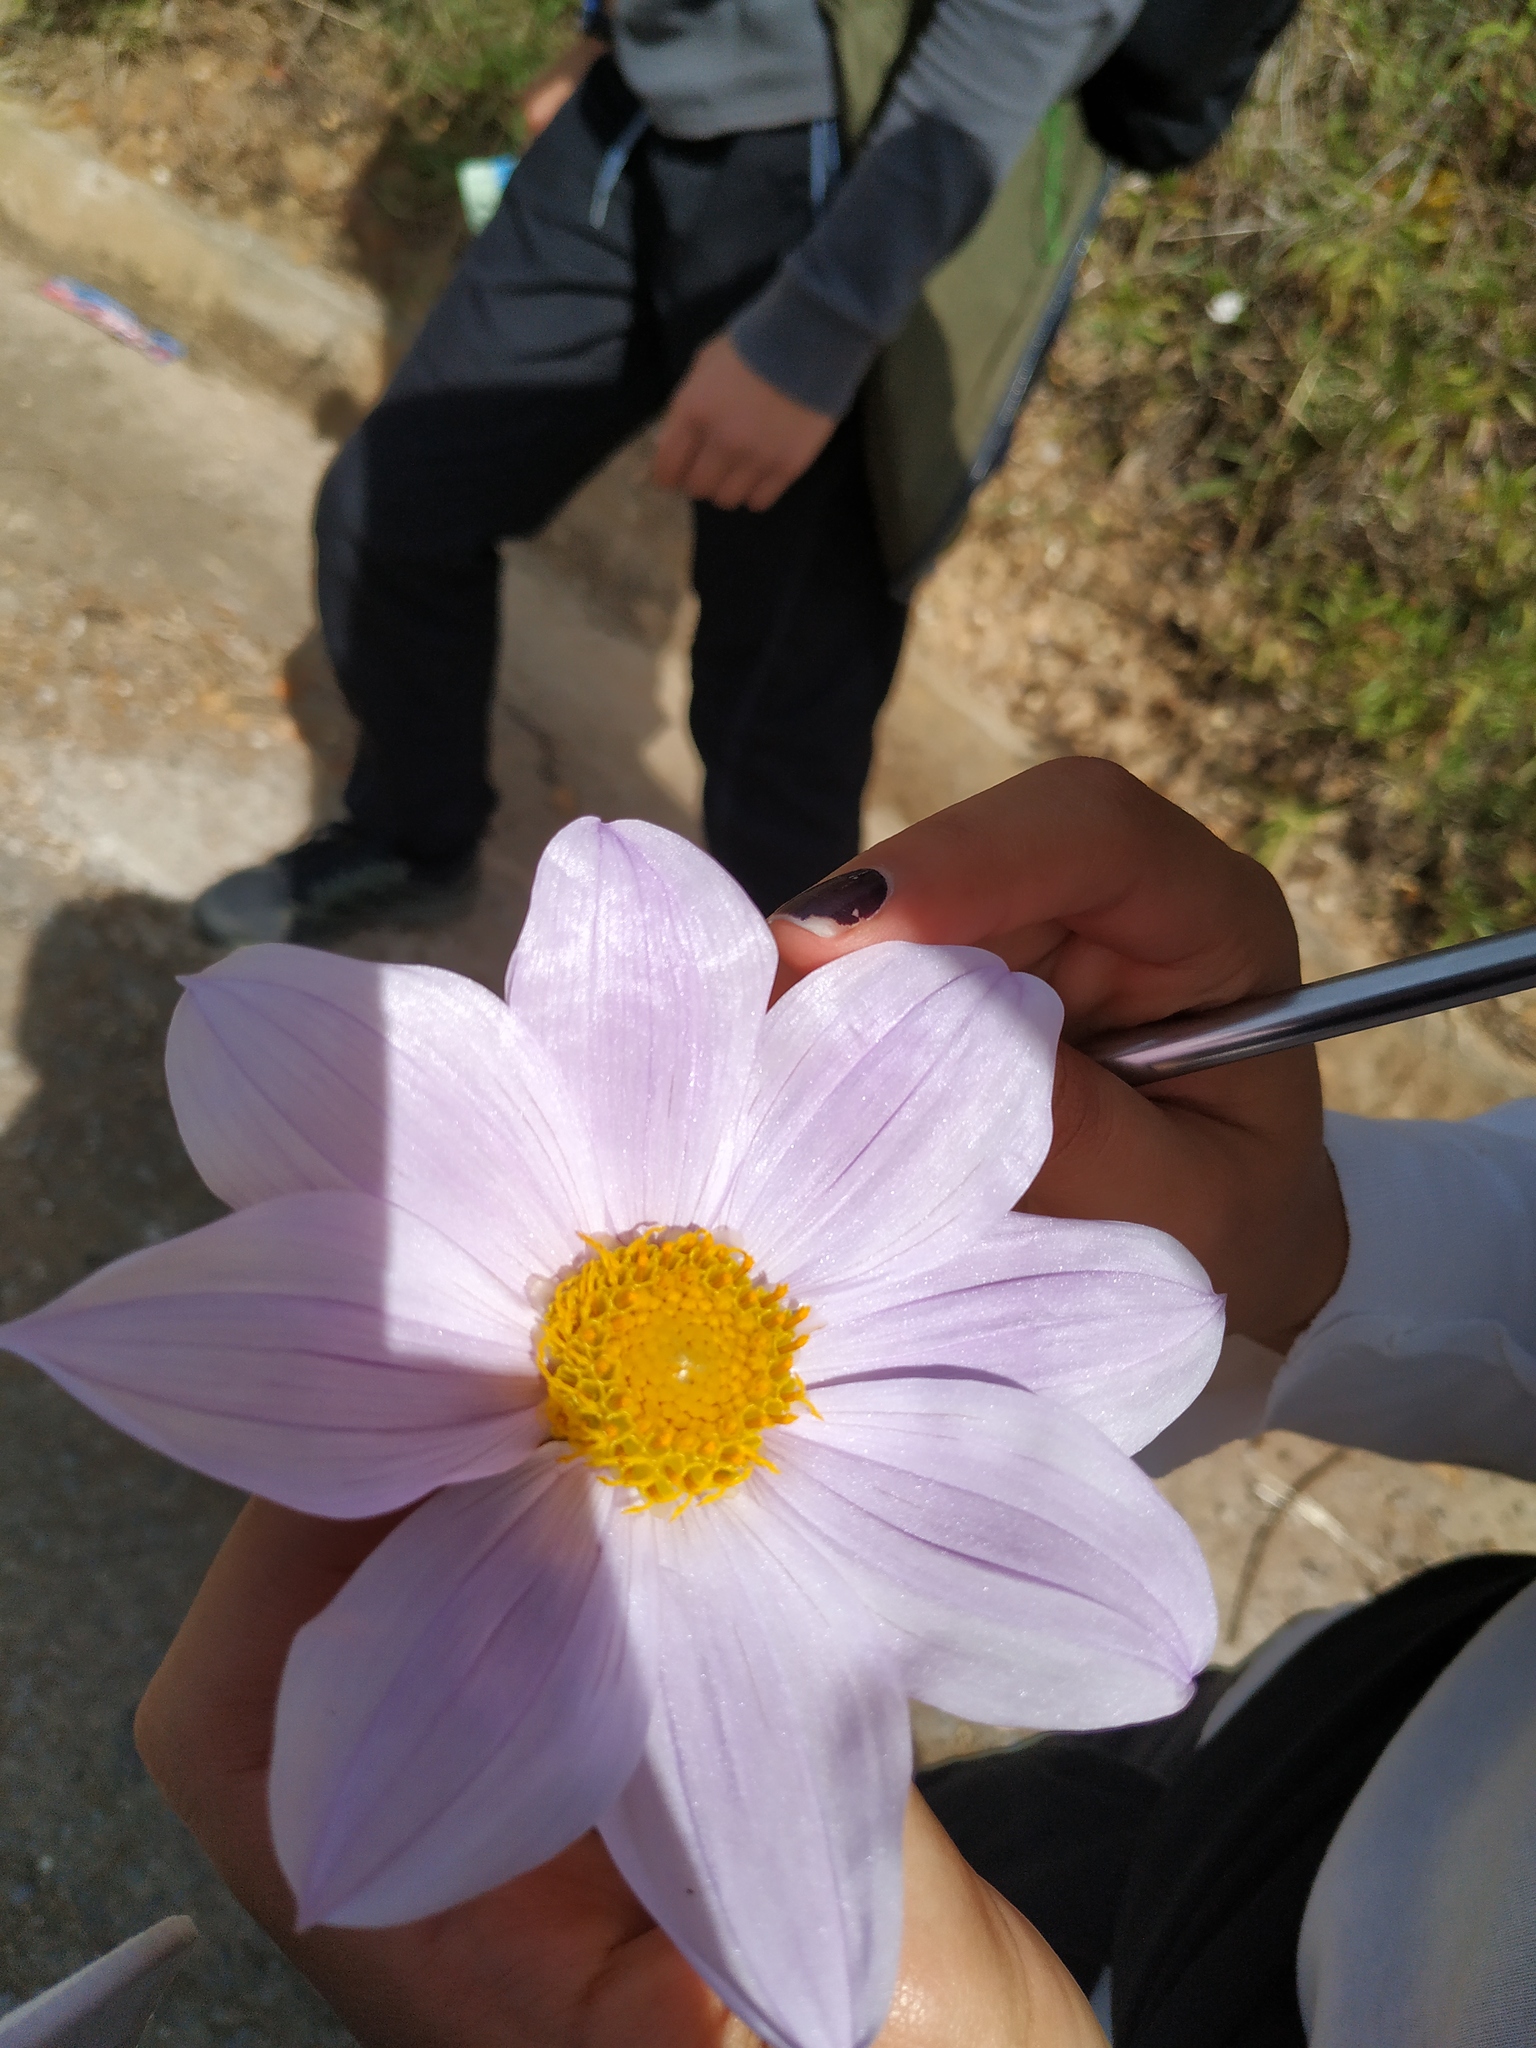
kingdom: Plantae
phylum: Tracheophyta
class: Magnoliopsida
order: Asterales
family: Asteraceae
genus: Dahlia
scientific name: Dahlia imperialis
